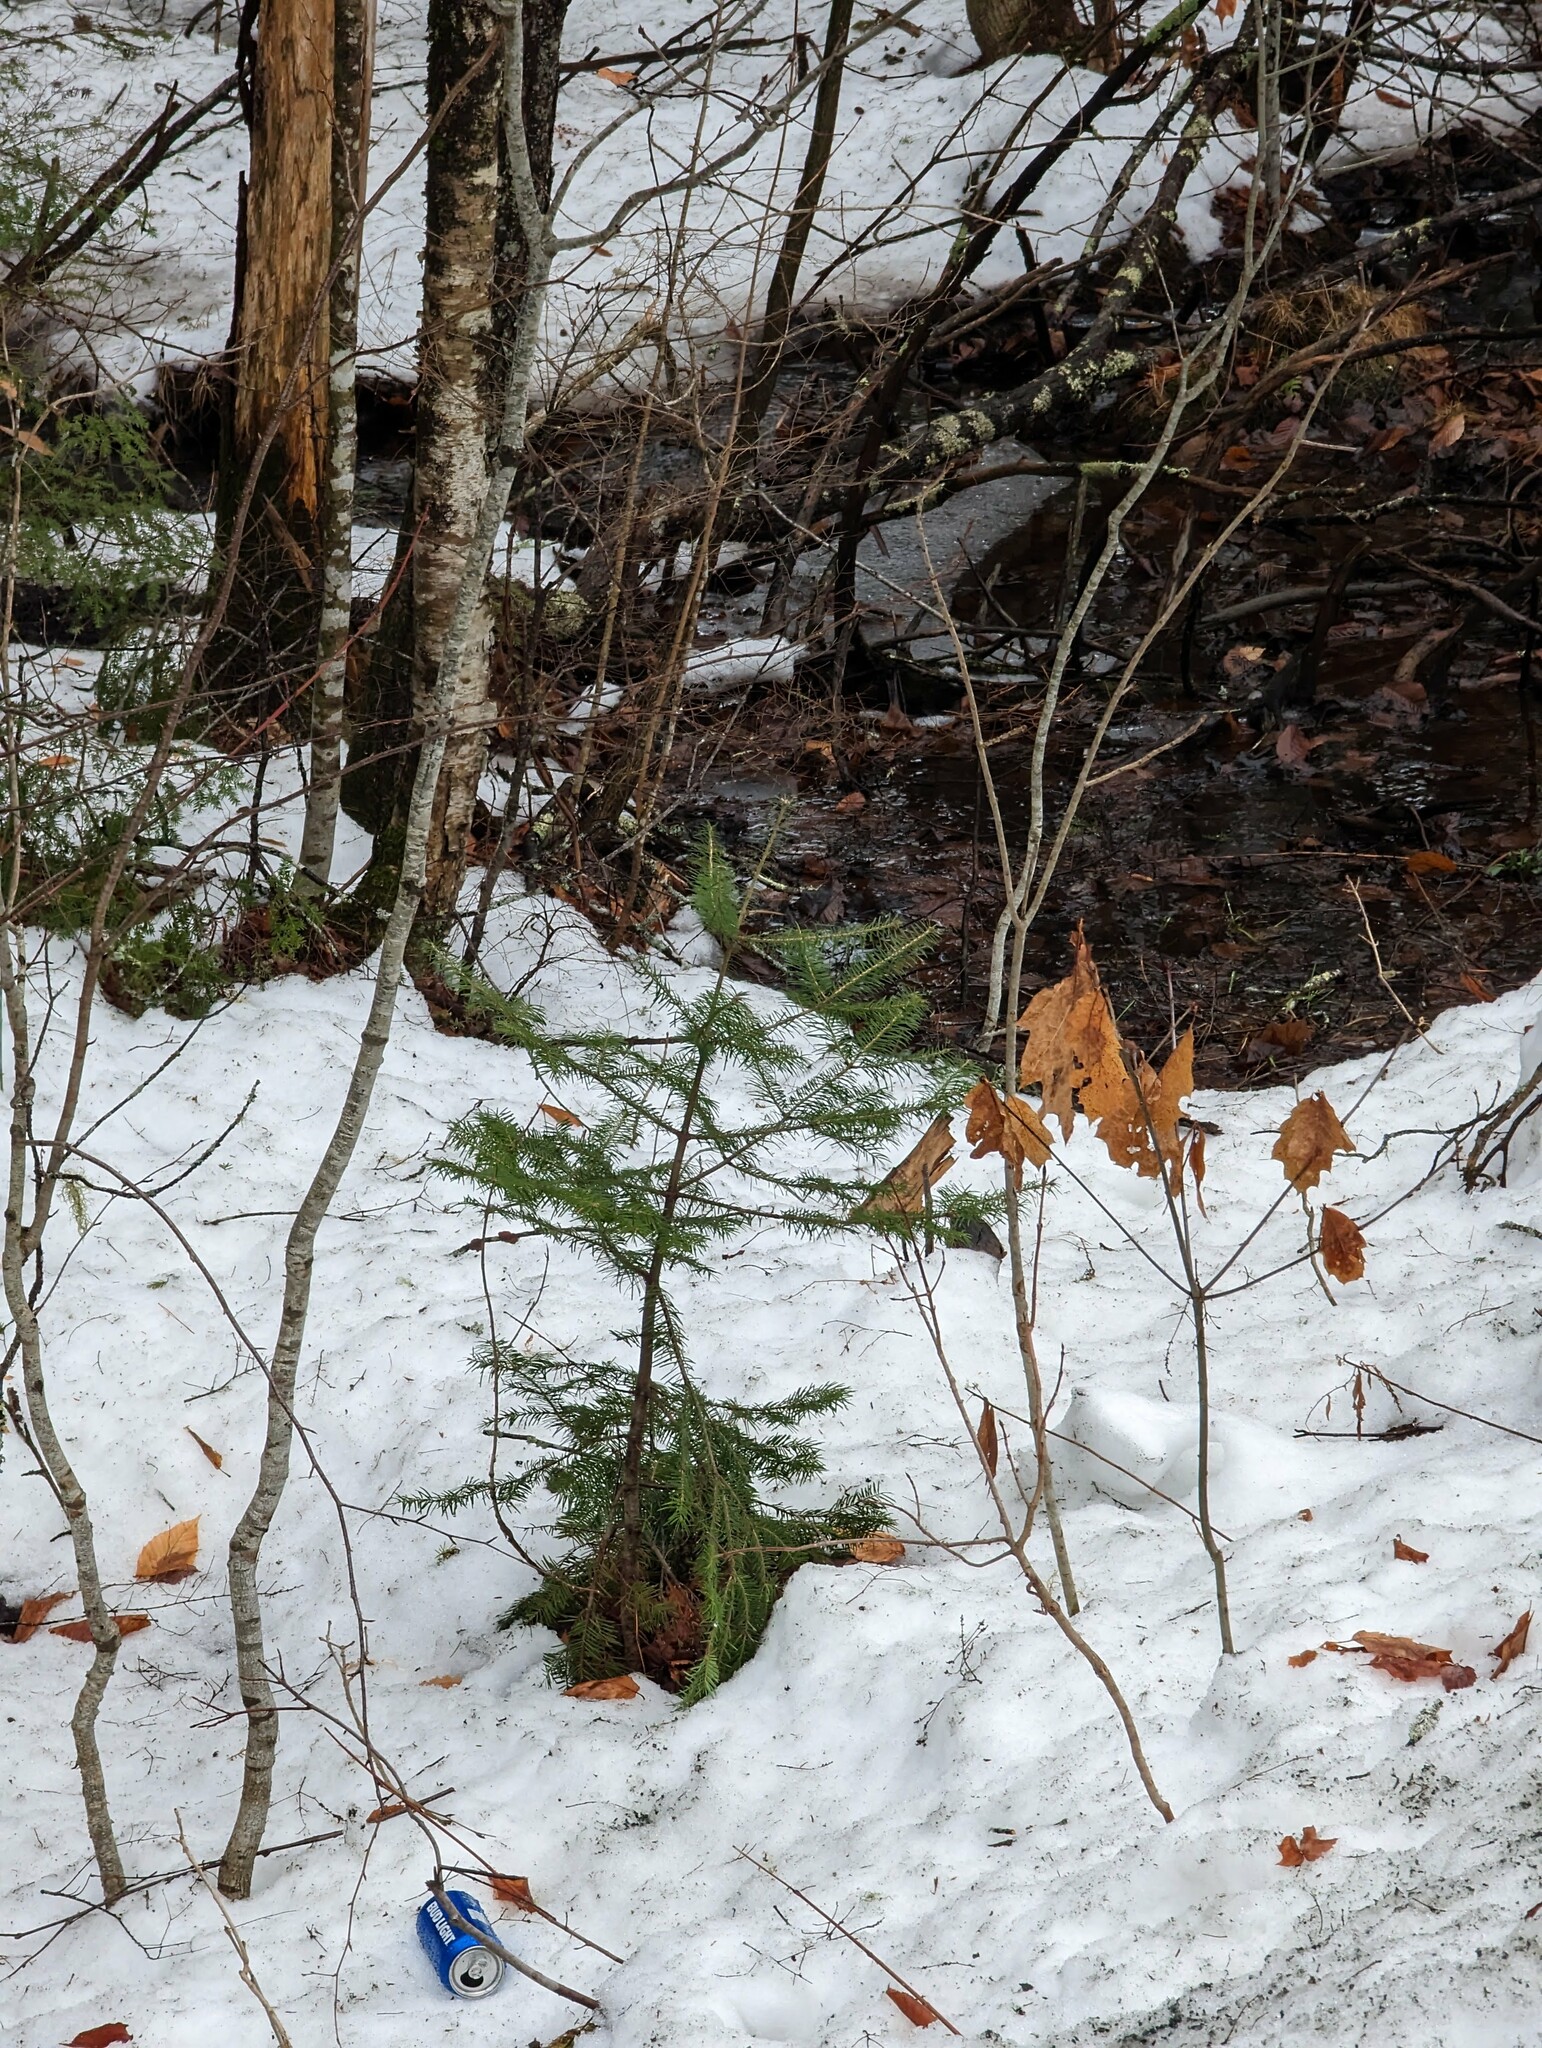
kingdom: Plantae
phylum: Tracheophyta
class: Pinopsida
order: Pinales
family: Pinaceae
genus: Abies
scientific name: Abies balsamea
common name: Balsam fir
